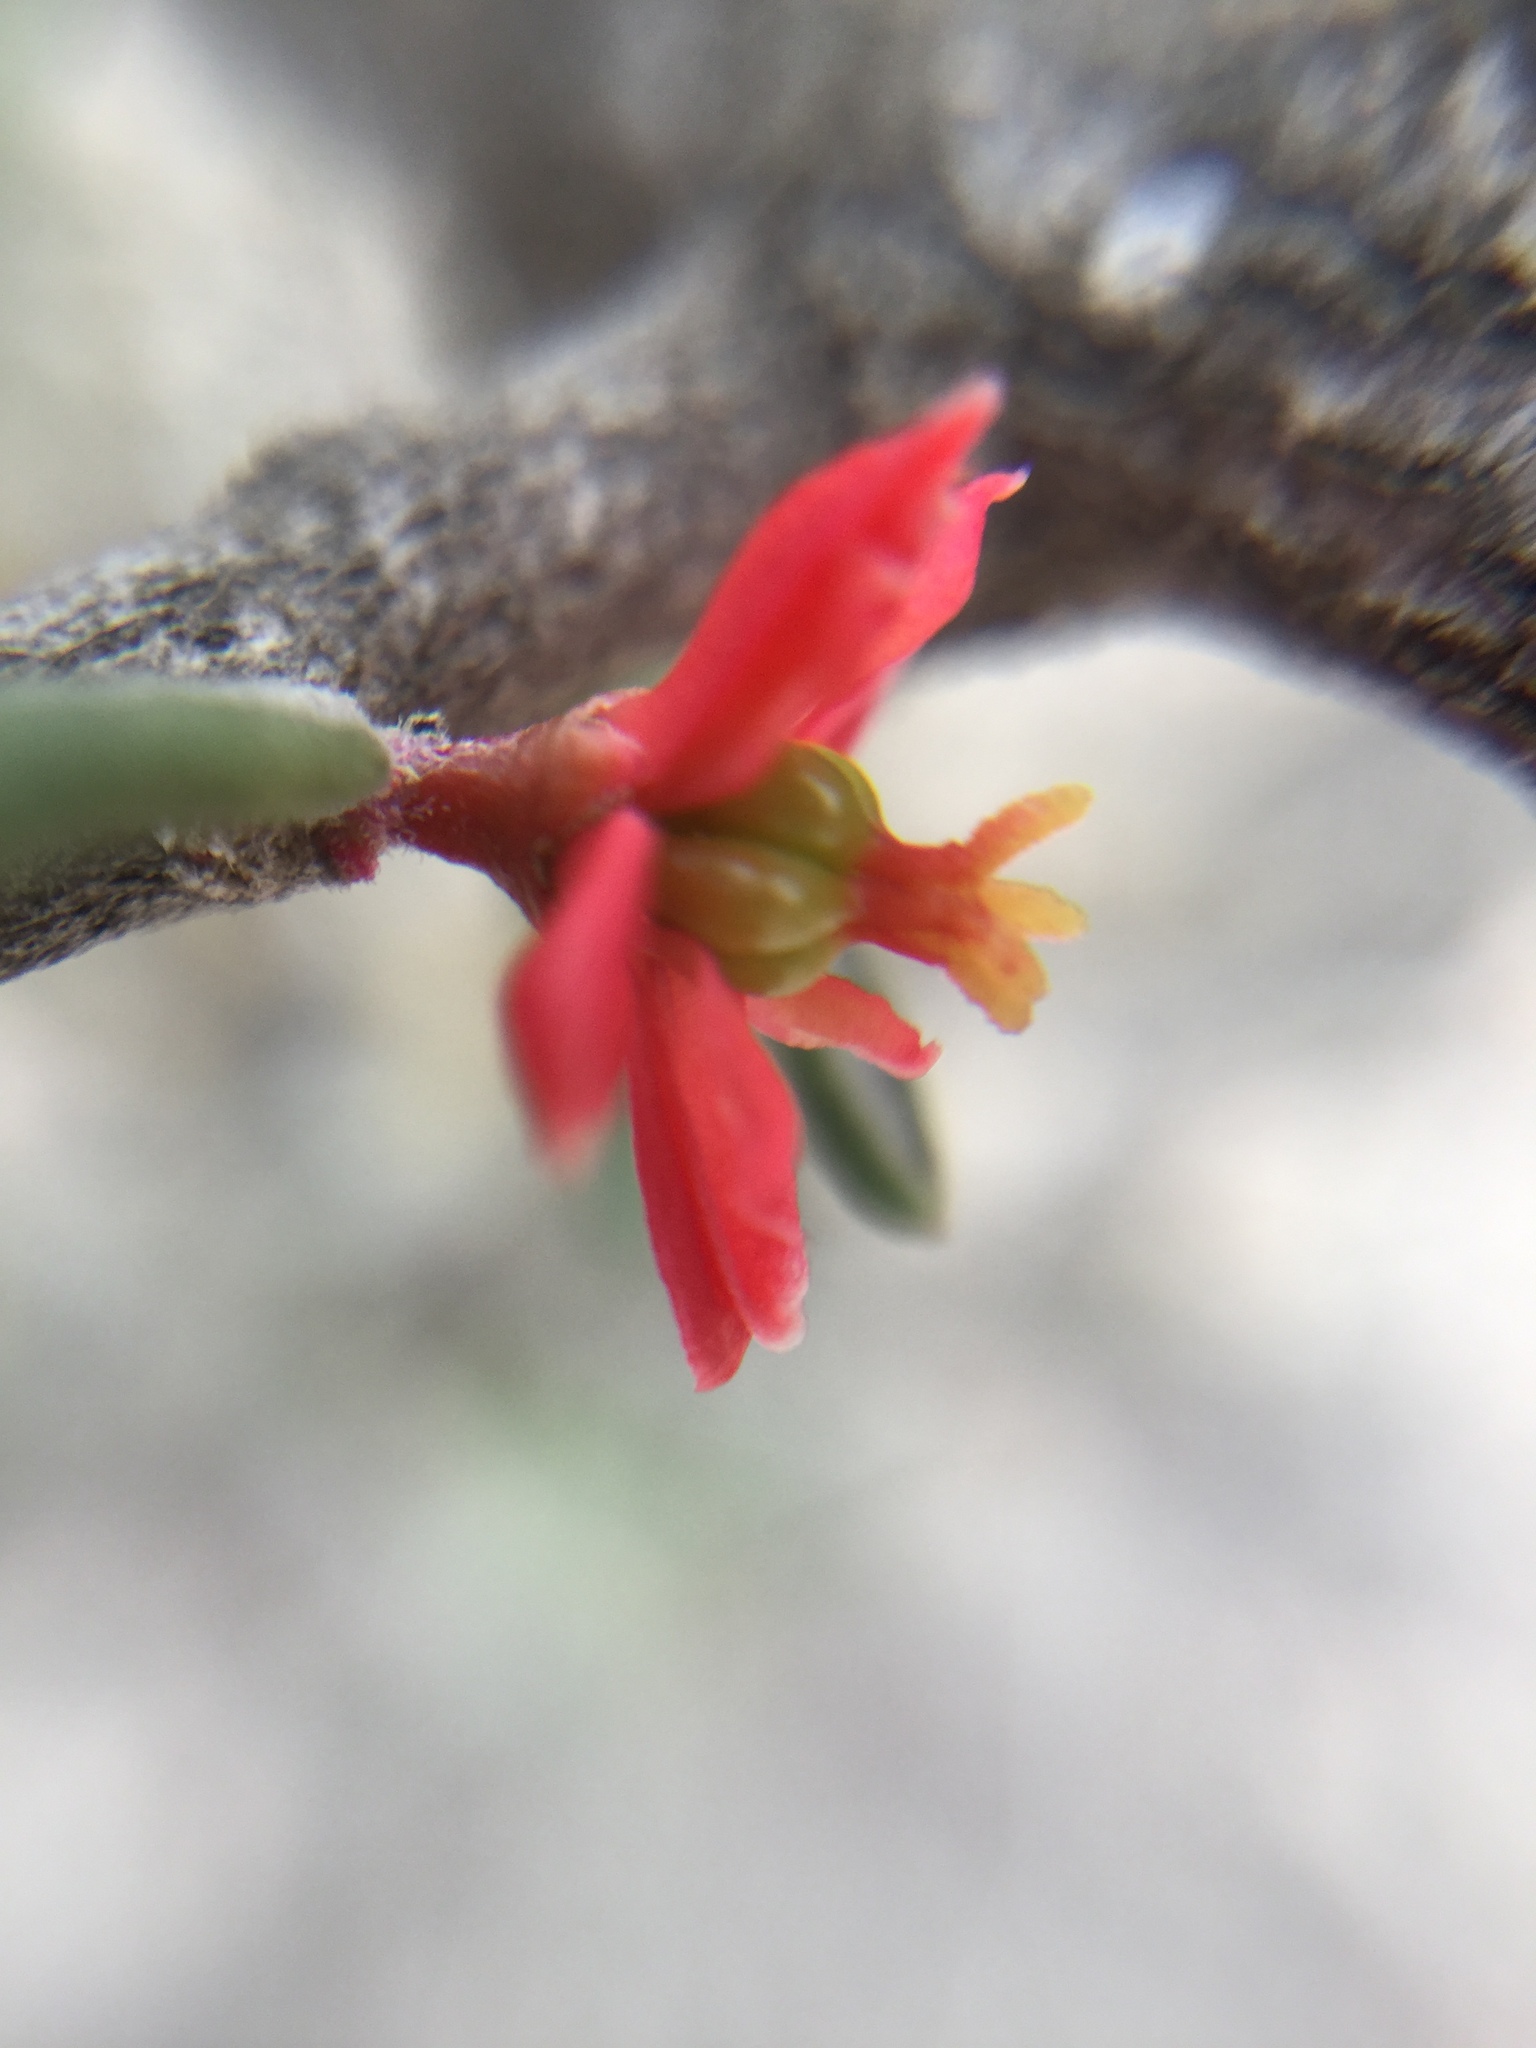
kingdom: Plantae
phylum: Tracheophyta
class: Magnoliopsida
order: Sapindales
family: Simaroubaceae
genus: Castela
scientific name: Castela tortuosa
